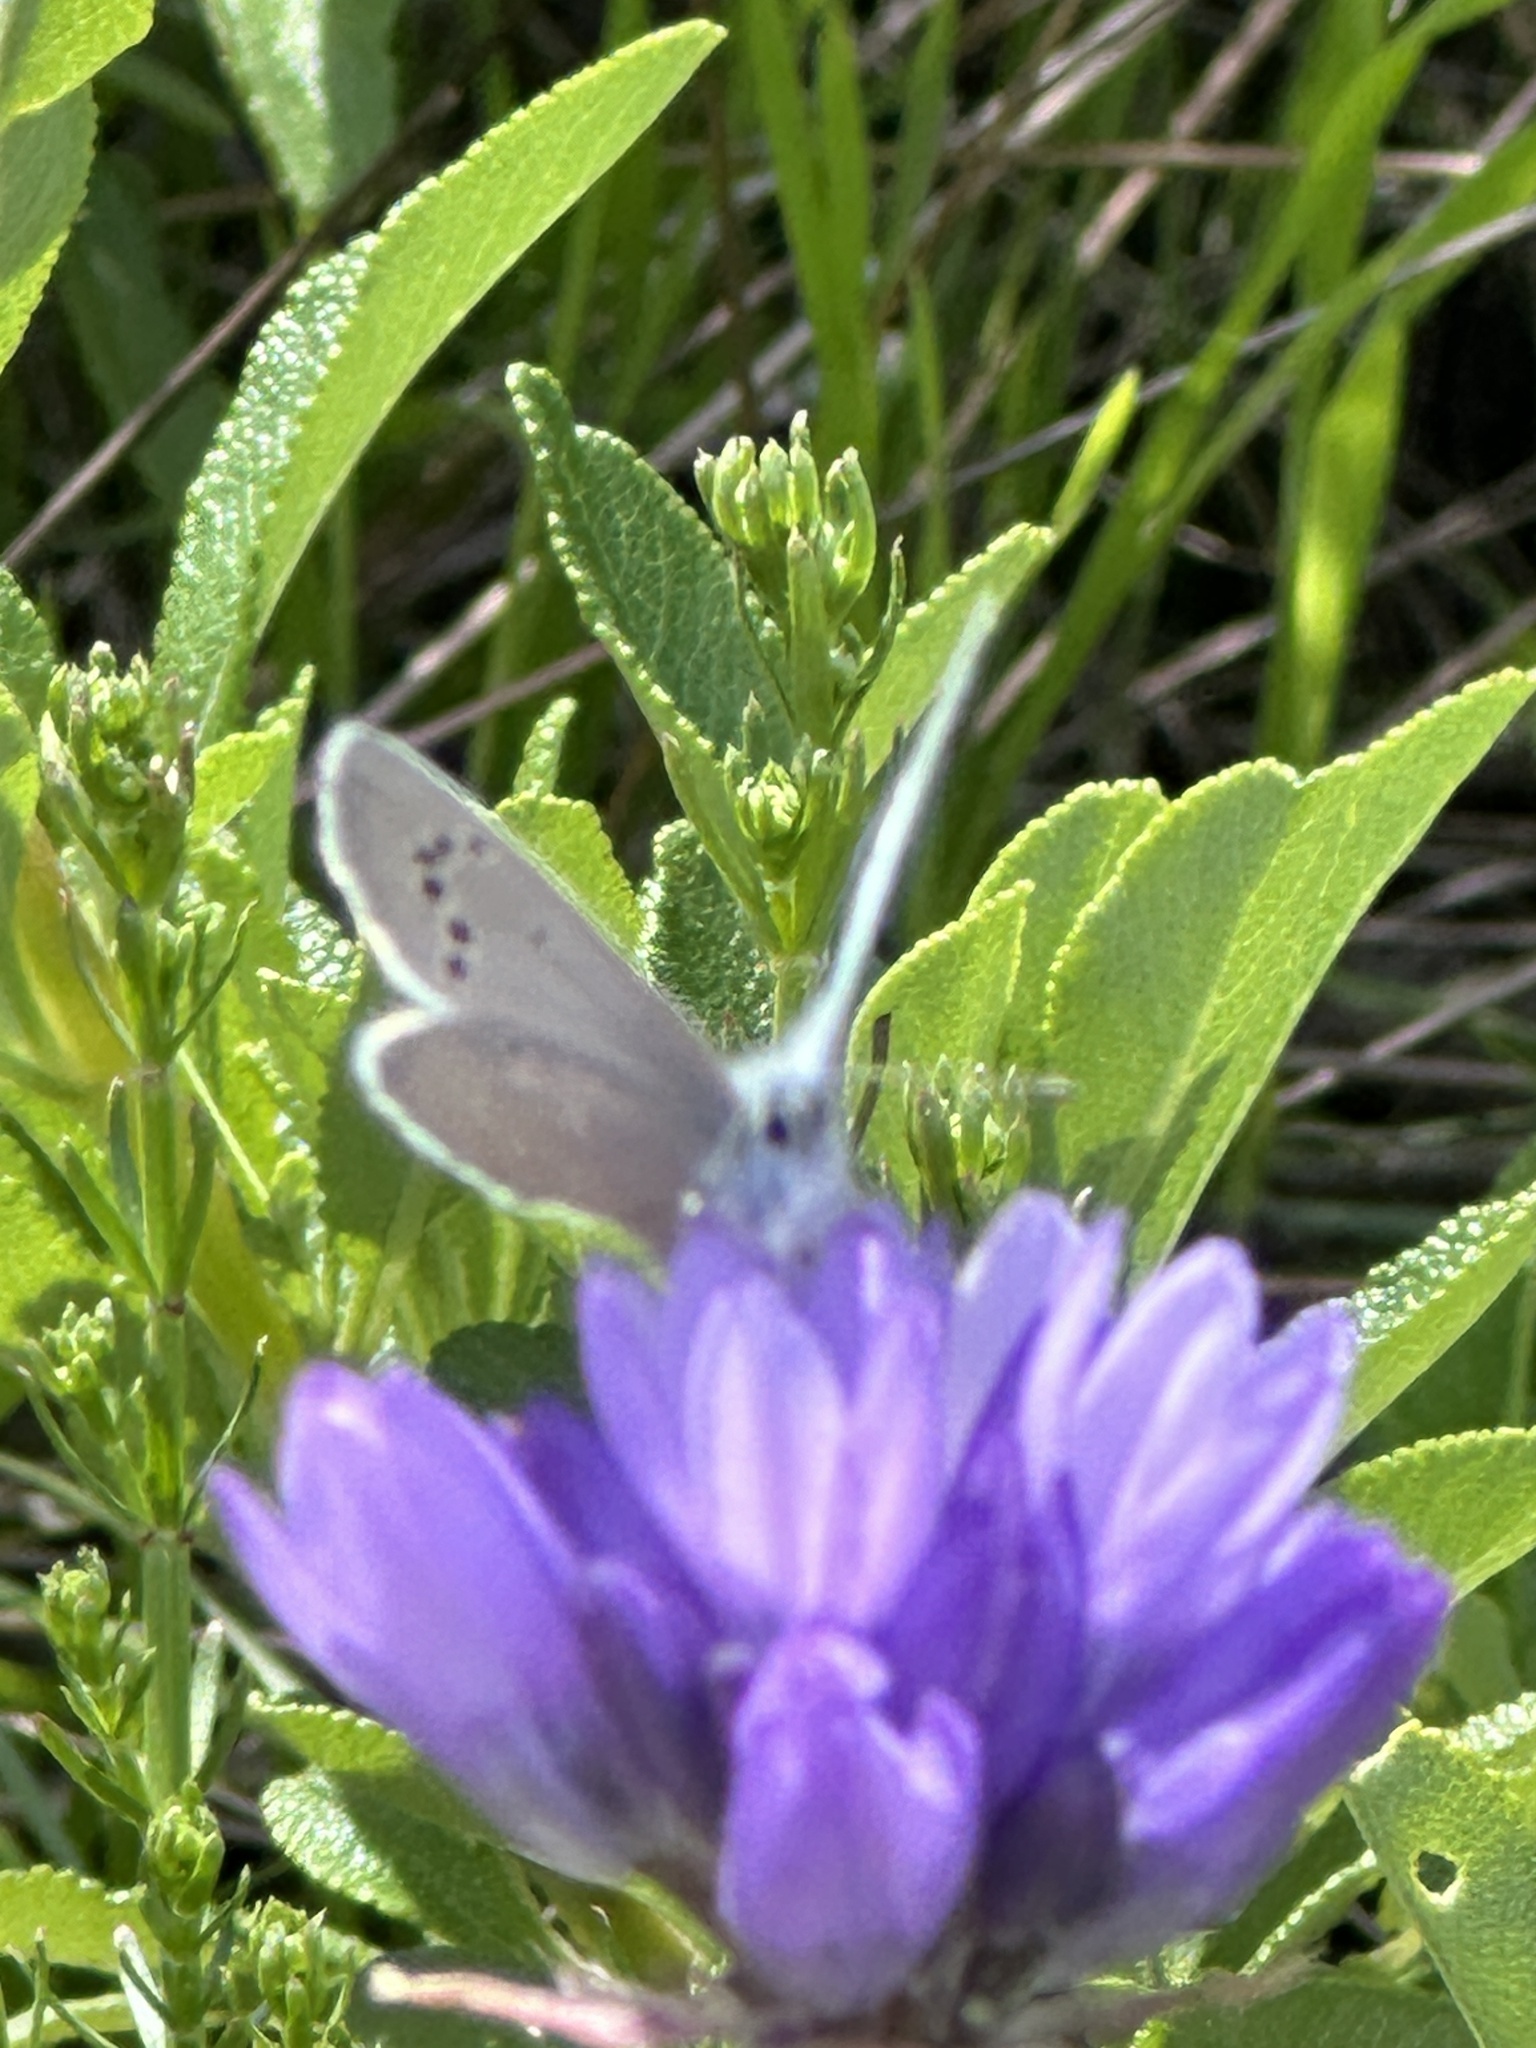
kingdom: Animalia
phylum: Arthropoda
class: Insecta
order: Lepidoptera
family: Lycaenidae
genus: Glaucopsyche
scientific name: Glaucopsyche lygdamus
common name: Silvery blue
